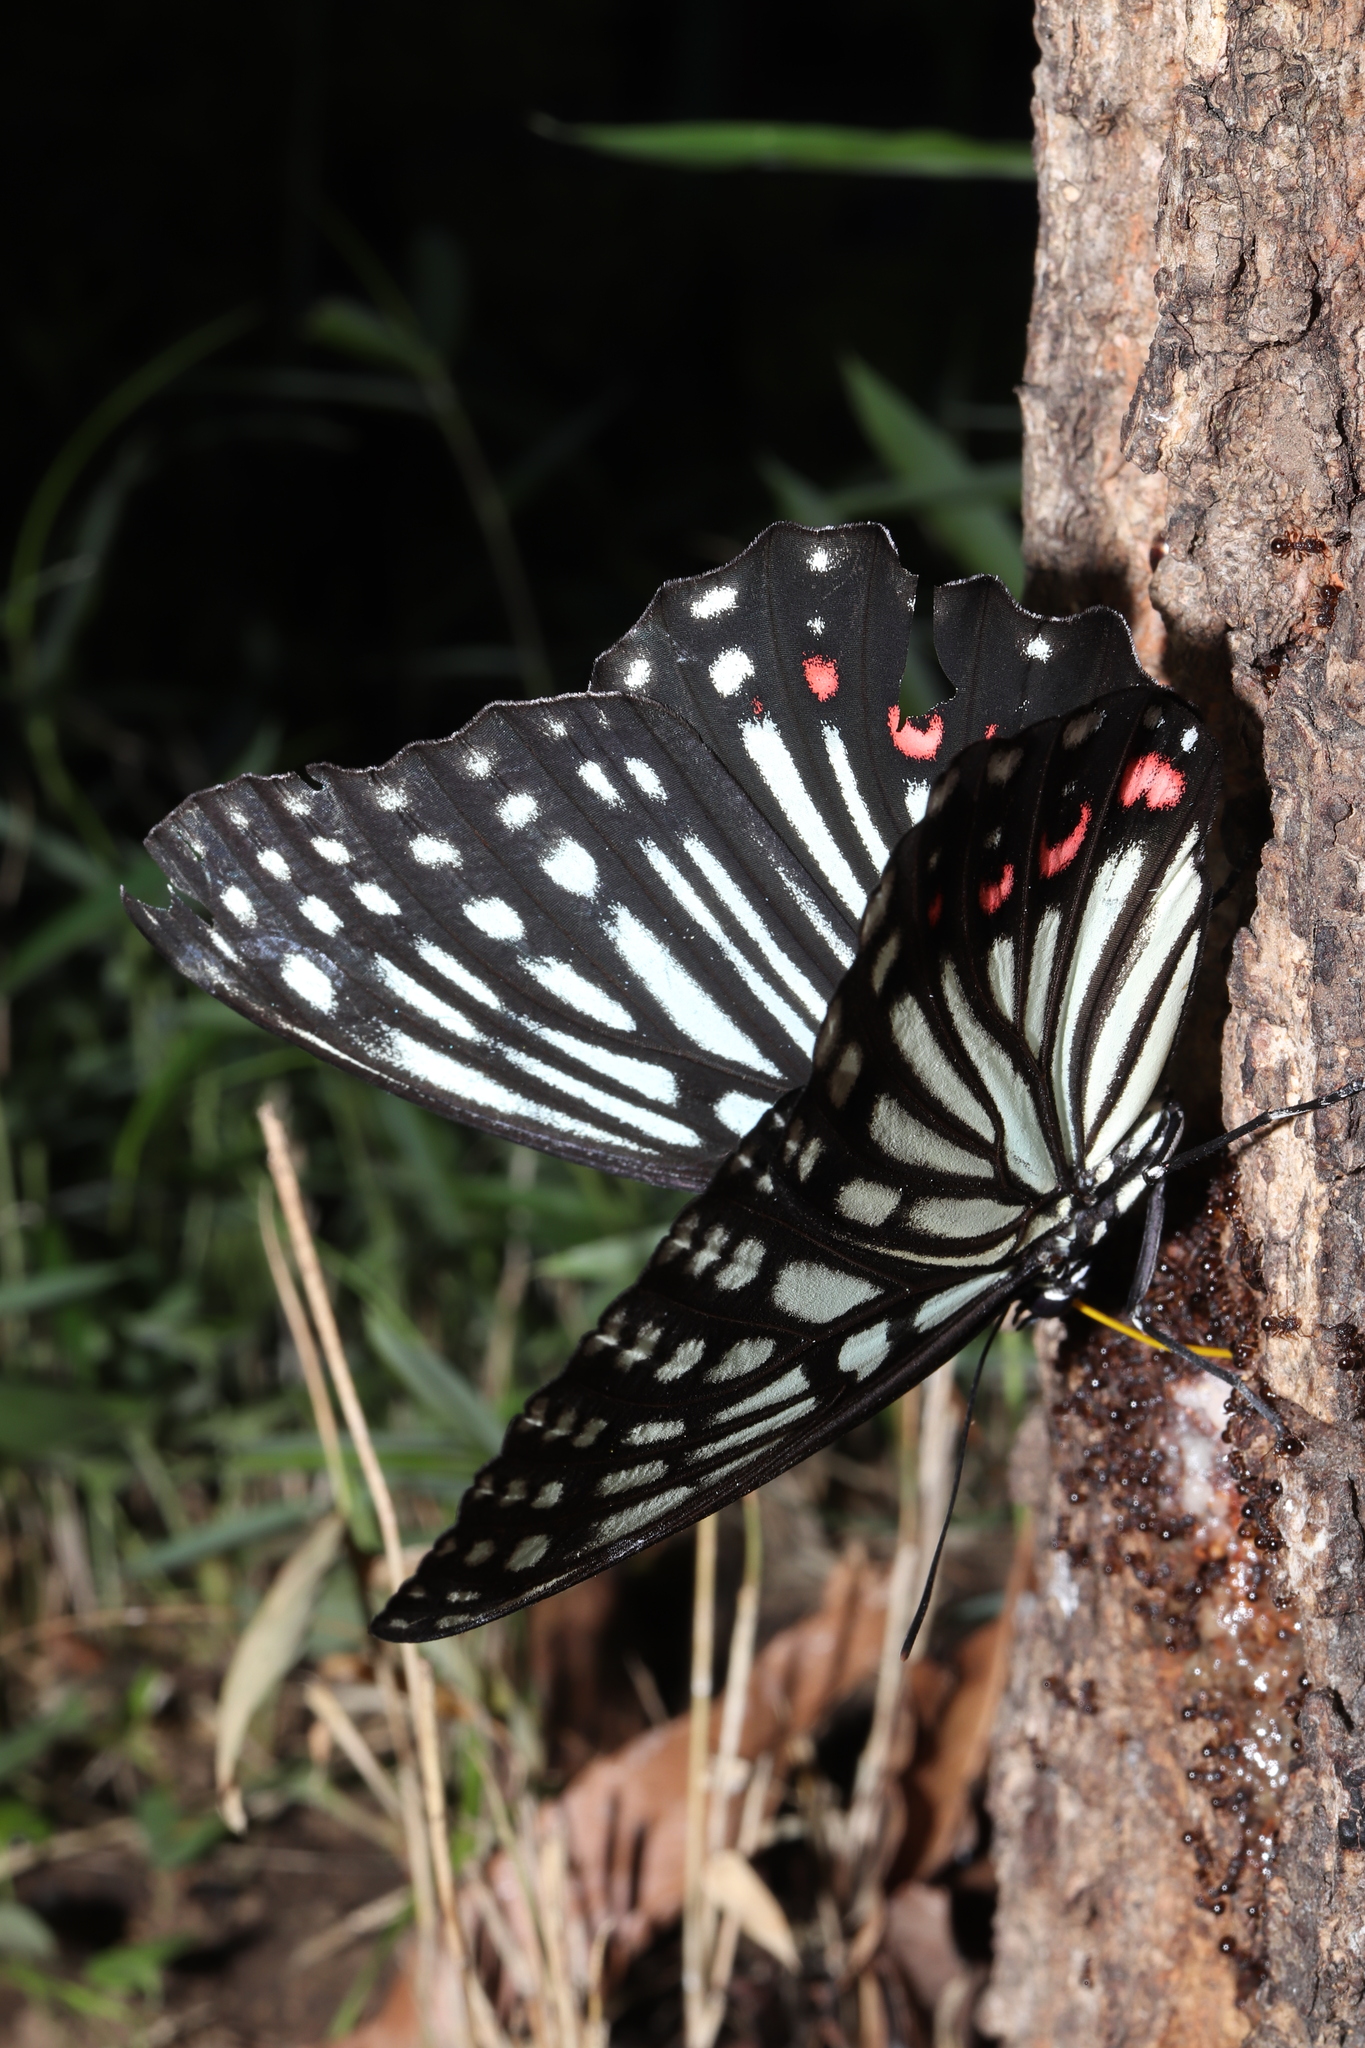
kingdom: Animalia
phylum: Arthropoda
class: Insecta
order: Lepidoptera
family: Nymphalidae
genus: Hestina
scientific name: Hestina assimilis
